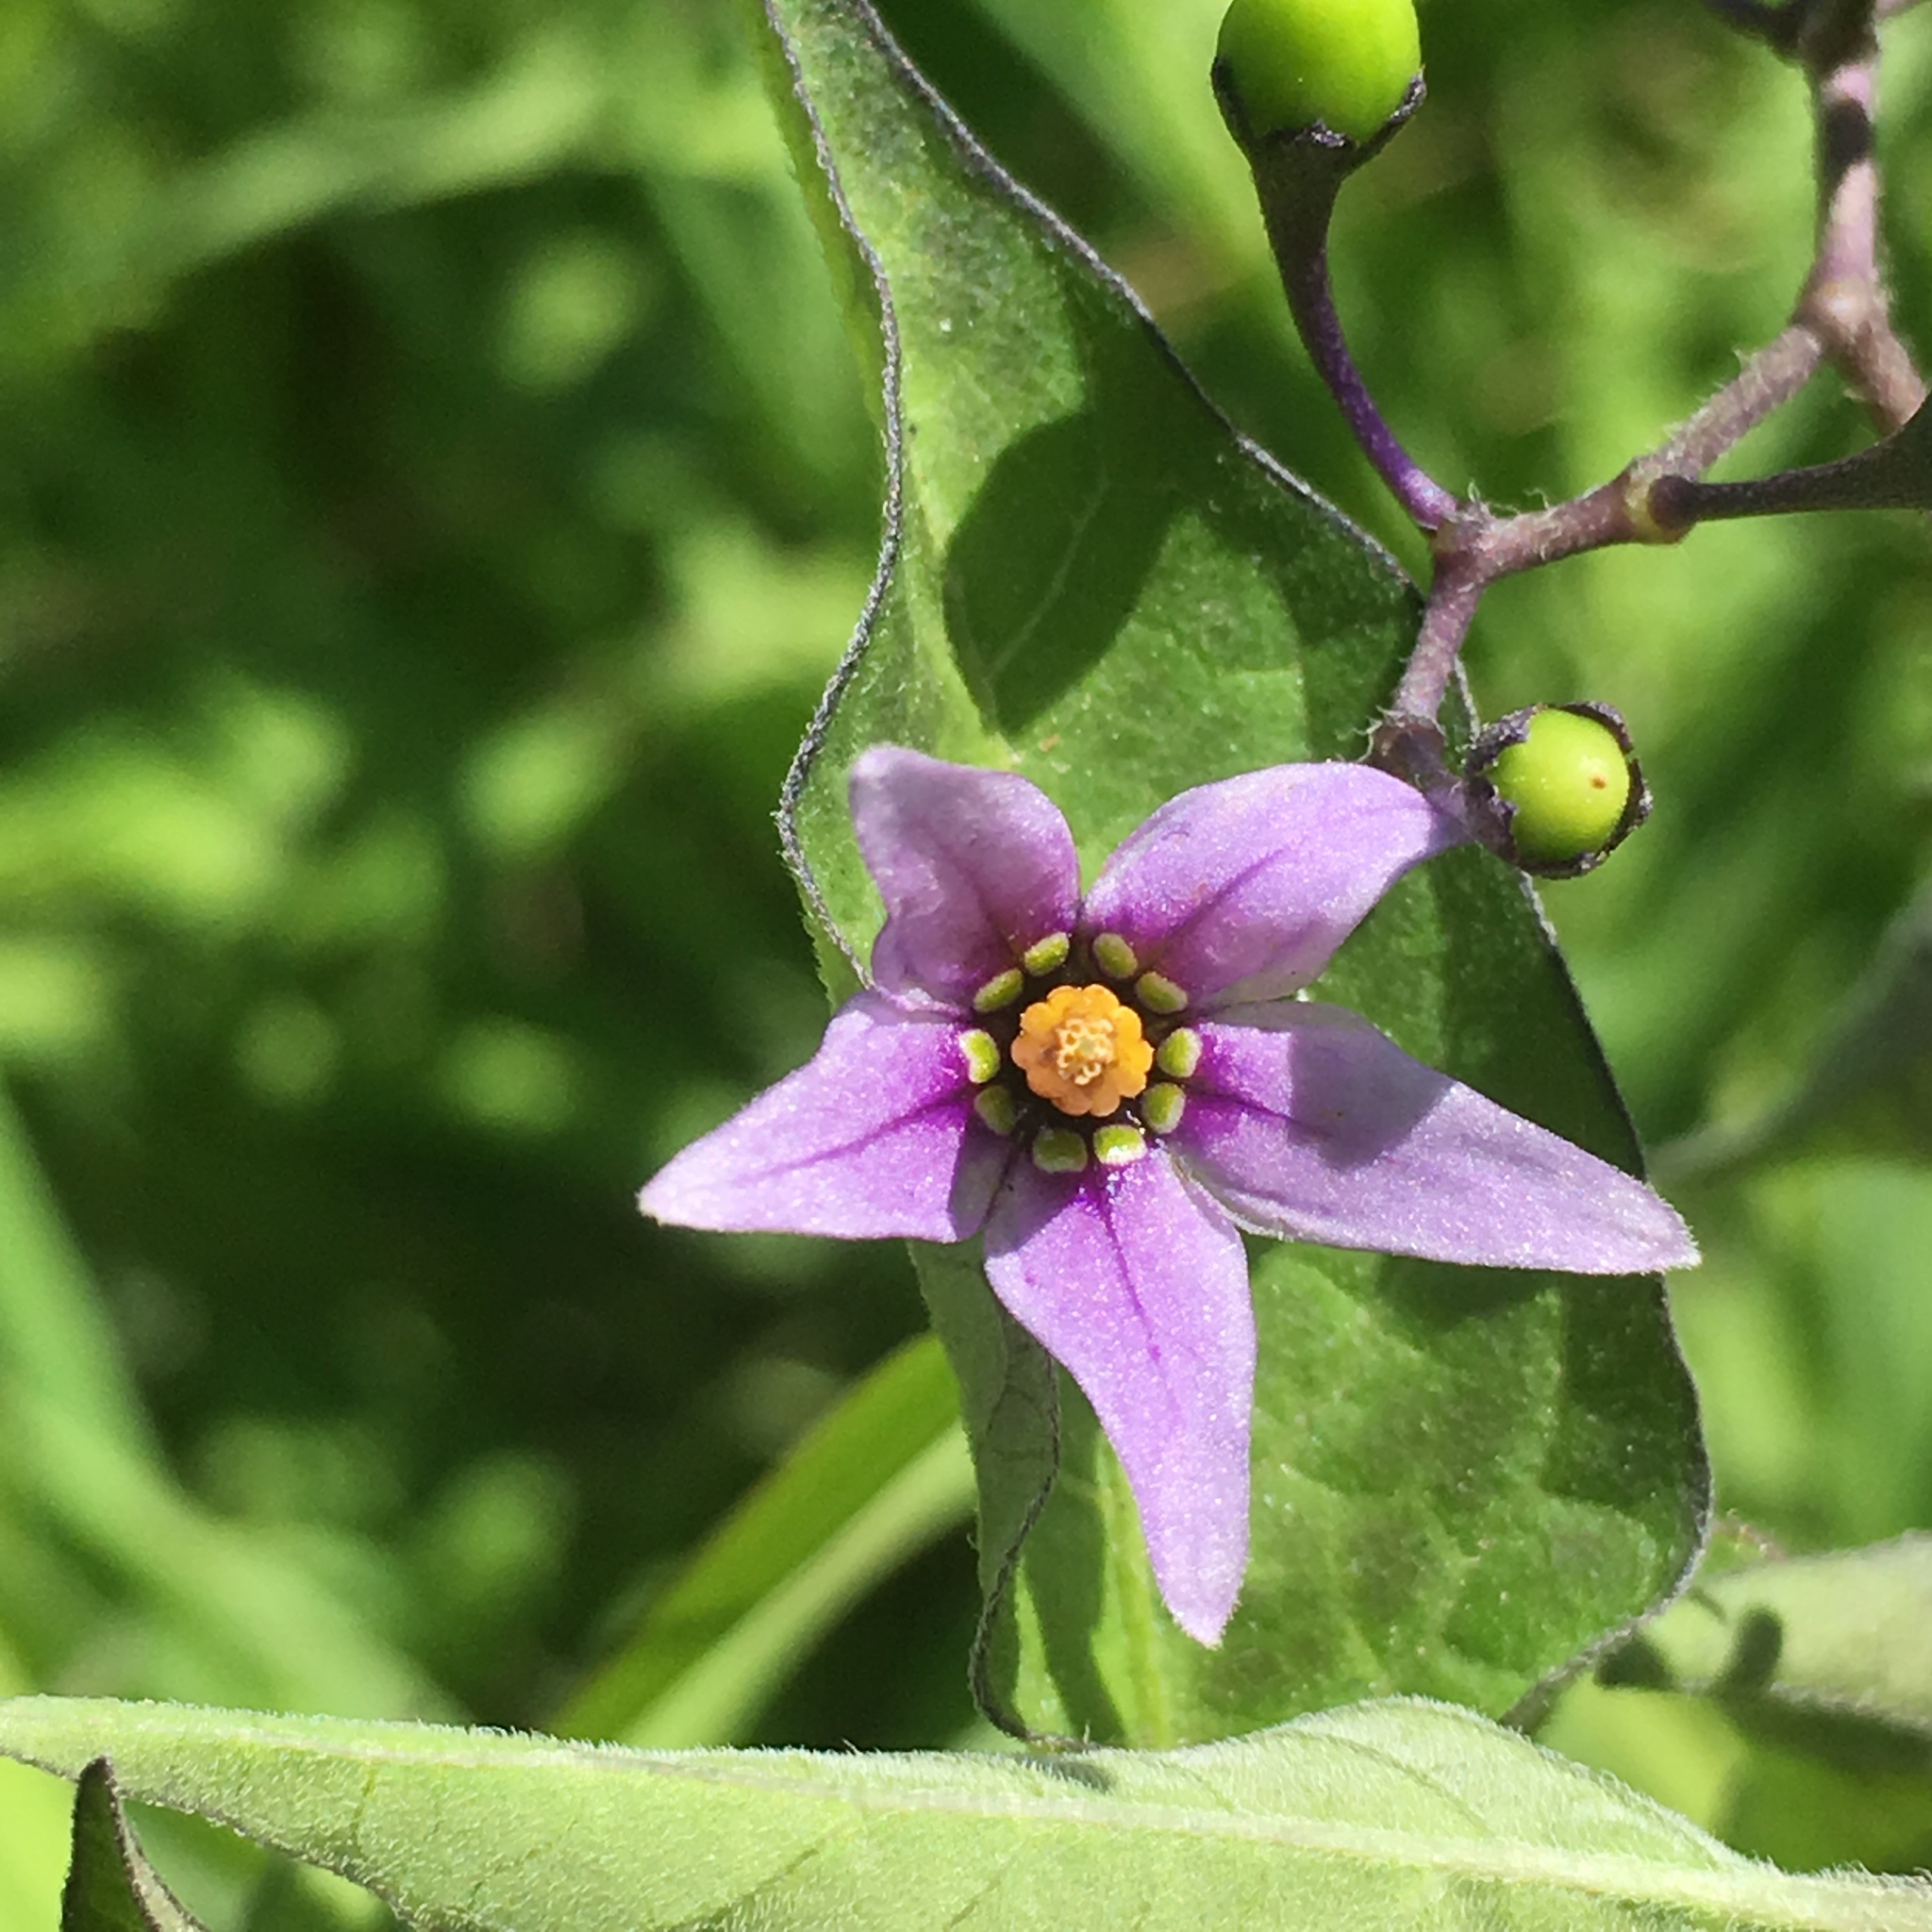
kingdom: Plantae
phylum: Tracheophyta
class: Magnoliopsida
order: Solanales
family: Solanaceae
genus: Solanum
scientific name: Solanum dulcamara
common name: Climbing nightshade
